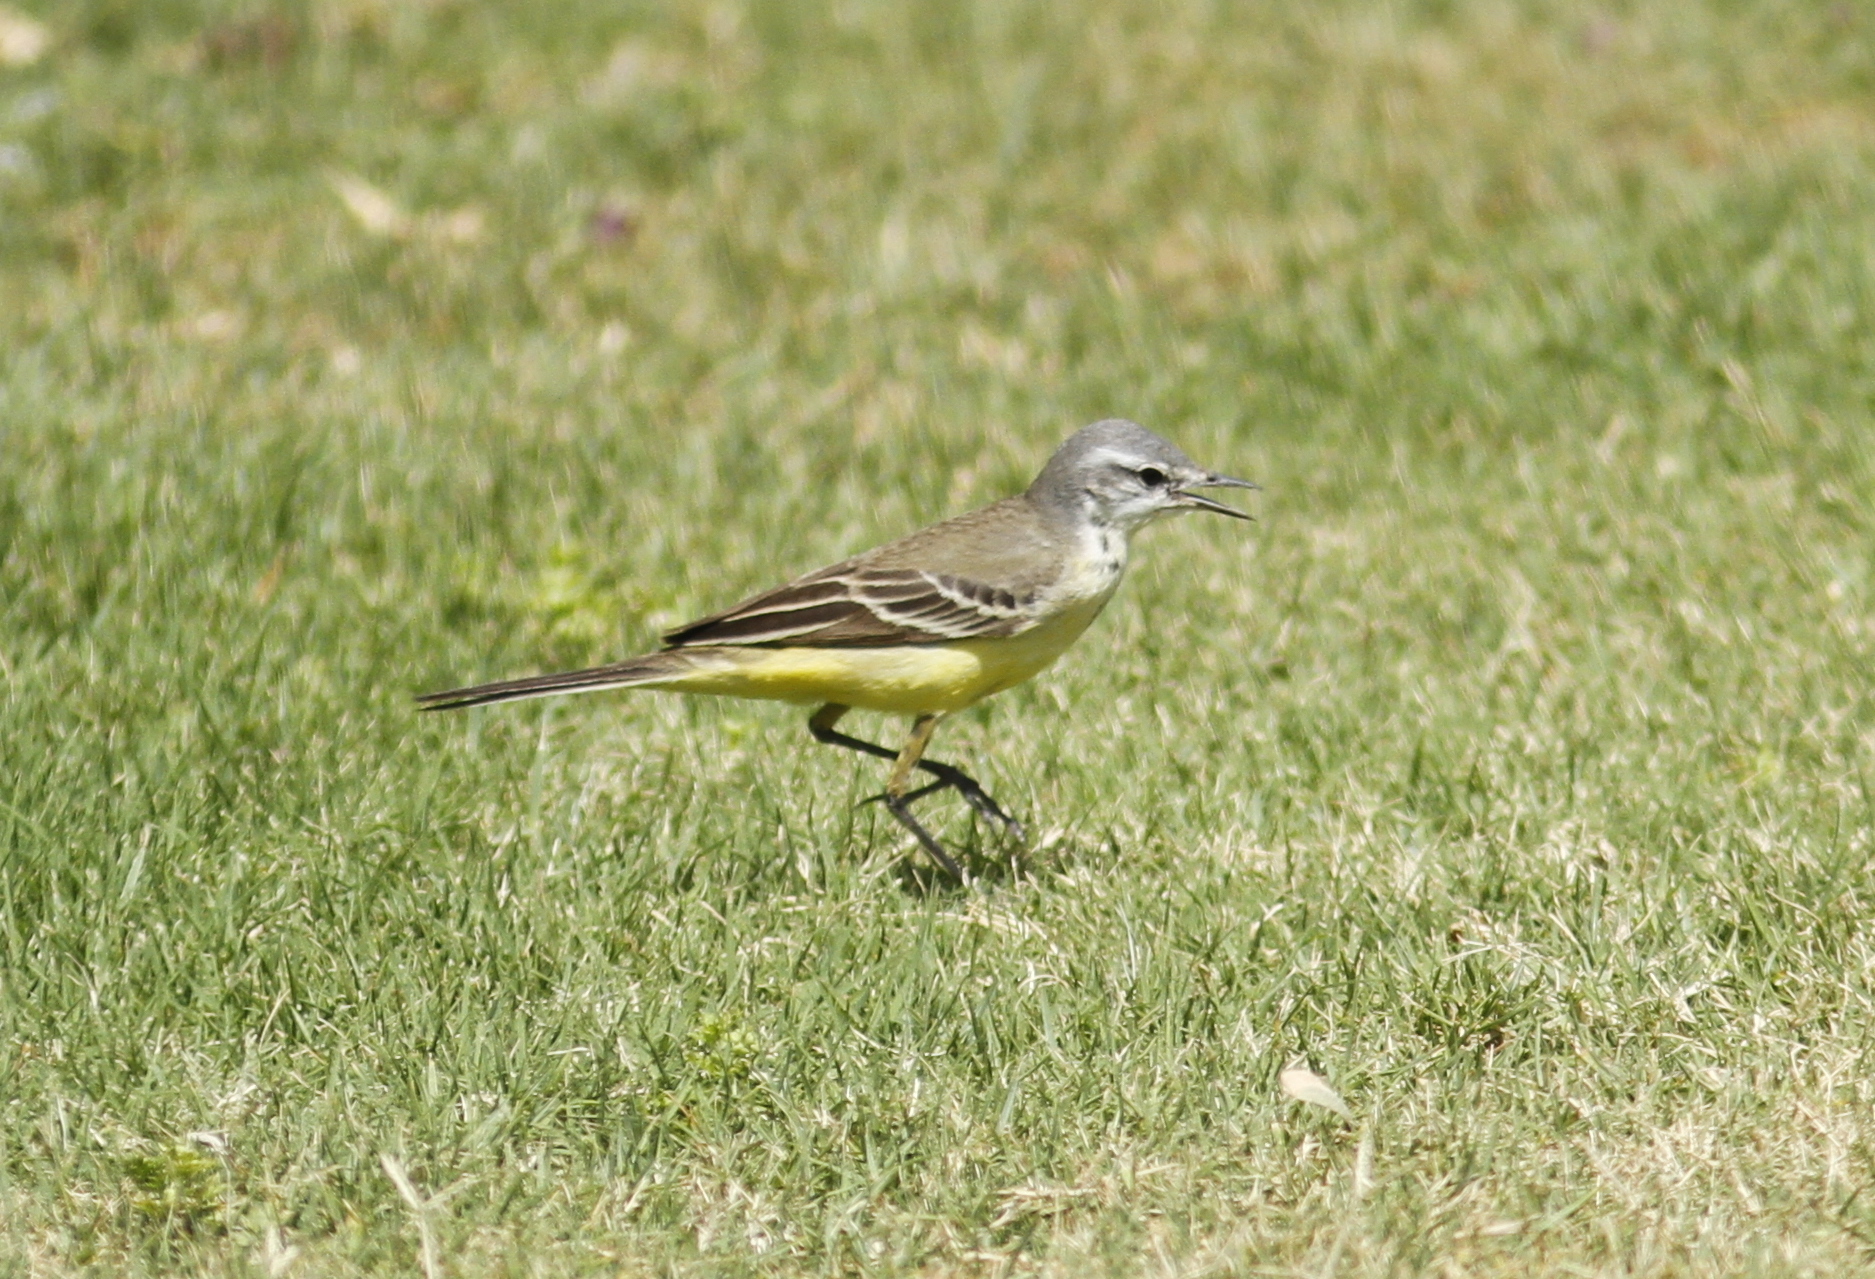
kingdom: Animalia
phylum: Chordata
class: Aves
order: Passeriformes
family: Motacillidae
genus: Motacilla
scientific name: Motacilla flava
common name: Western yellow wagtail
